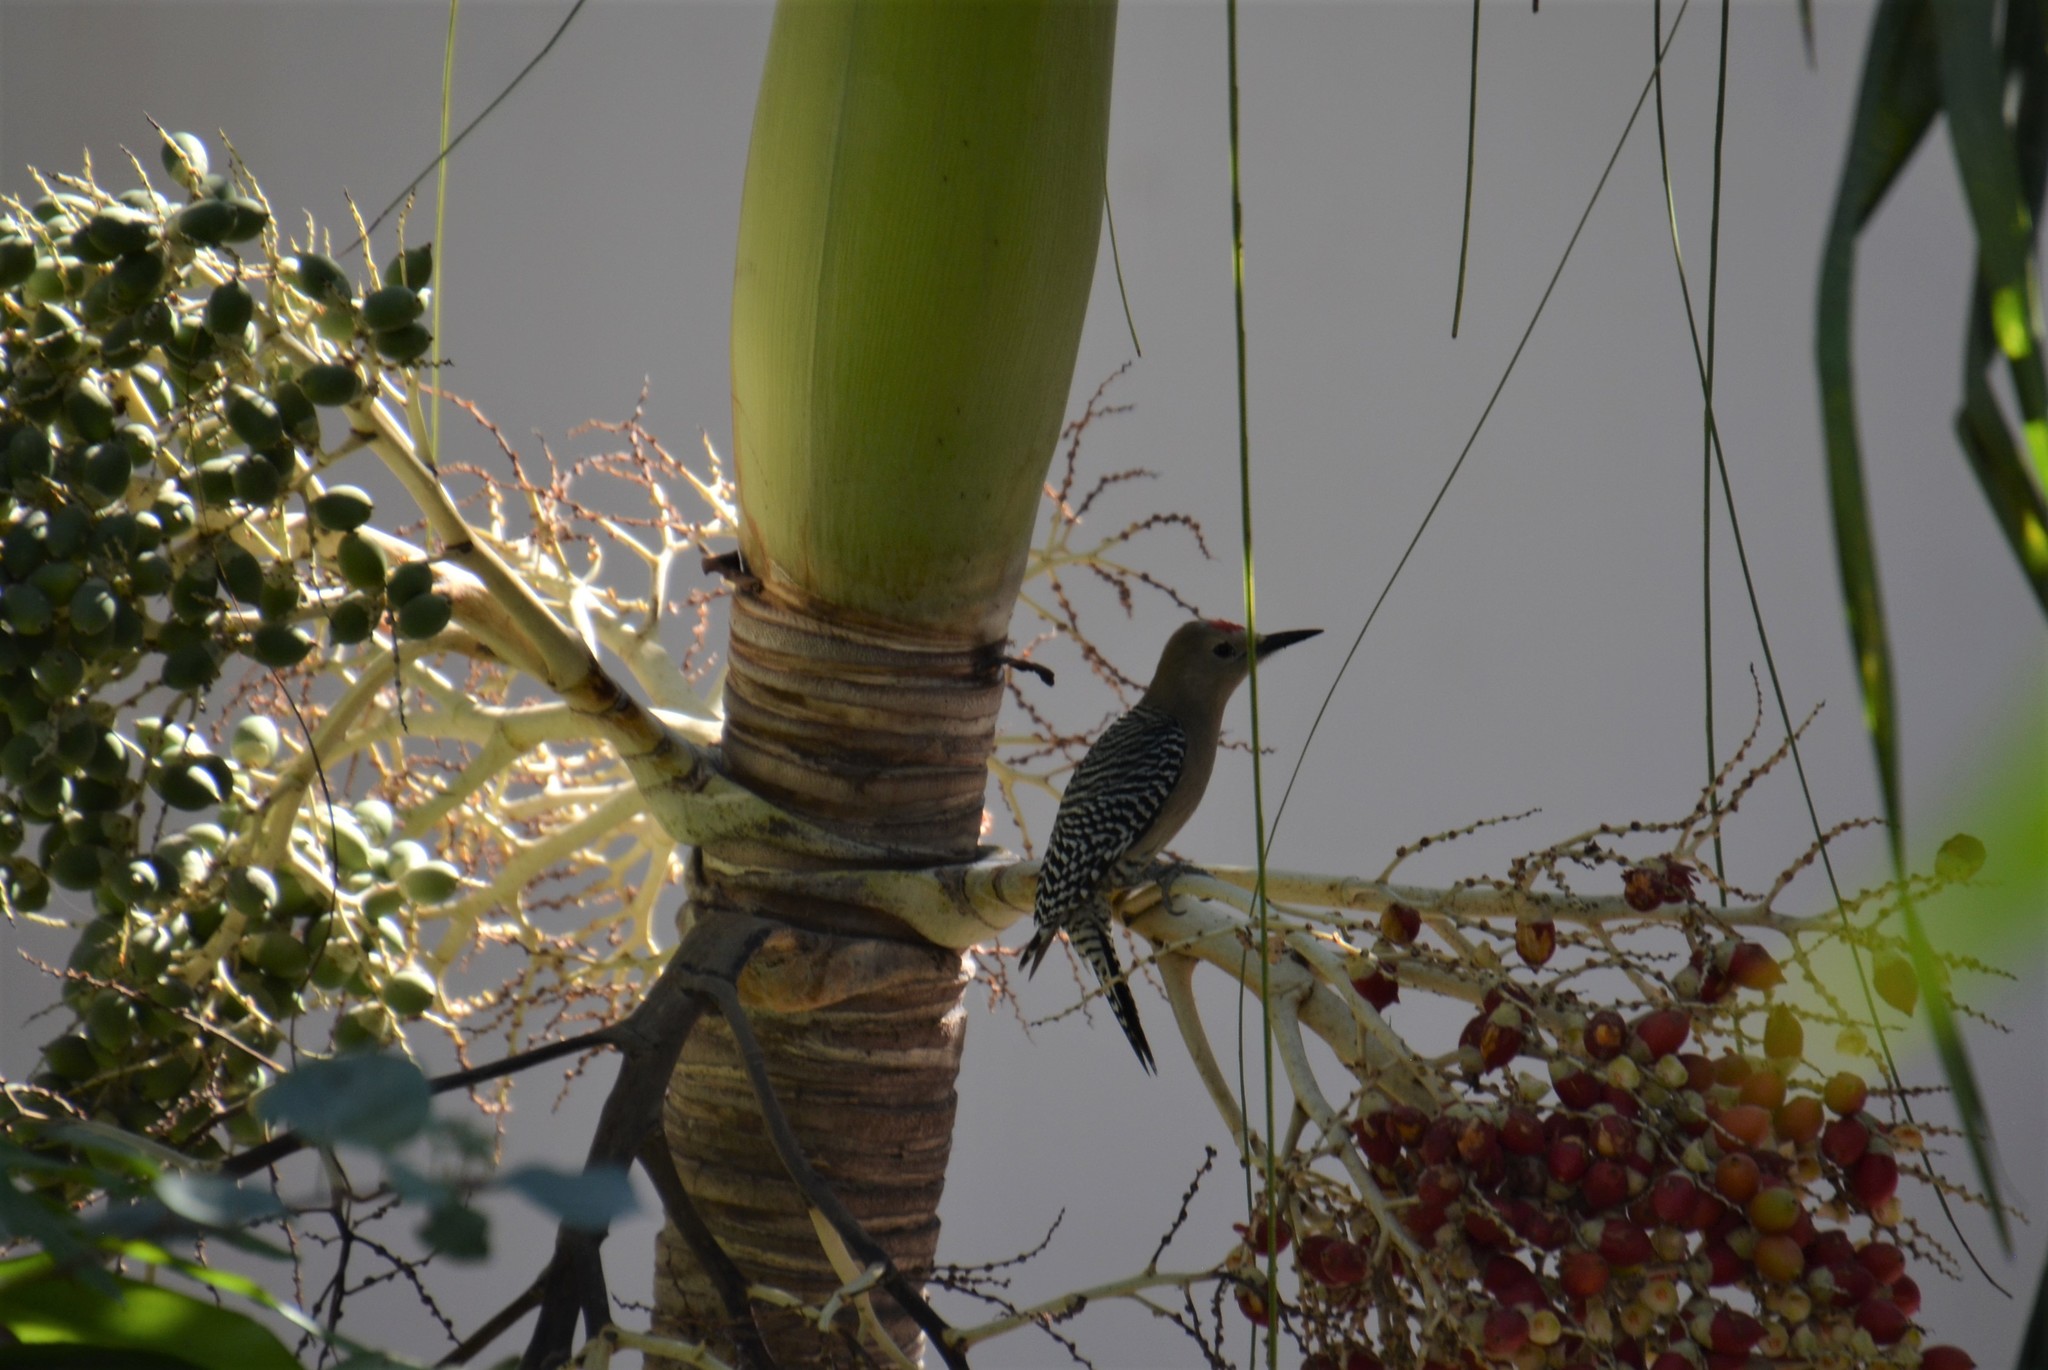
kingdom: Animalia
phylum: Chordata
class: Aves
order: Piciformes
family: Picidae
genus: Melanerpes
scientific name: Melanerpes uropygialis
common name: Gila woodpecker
